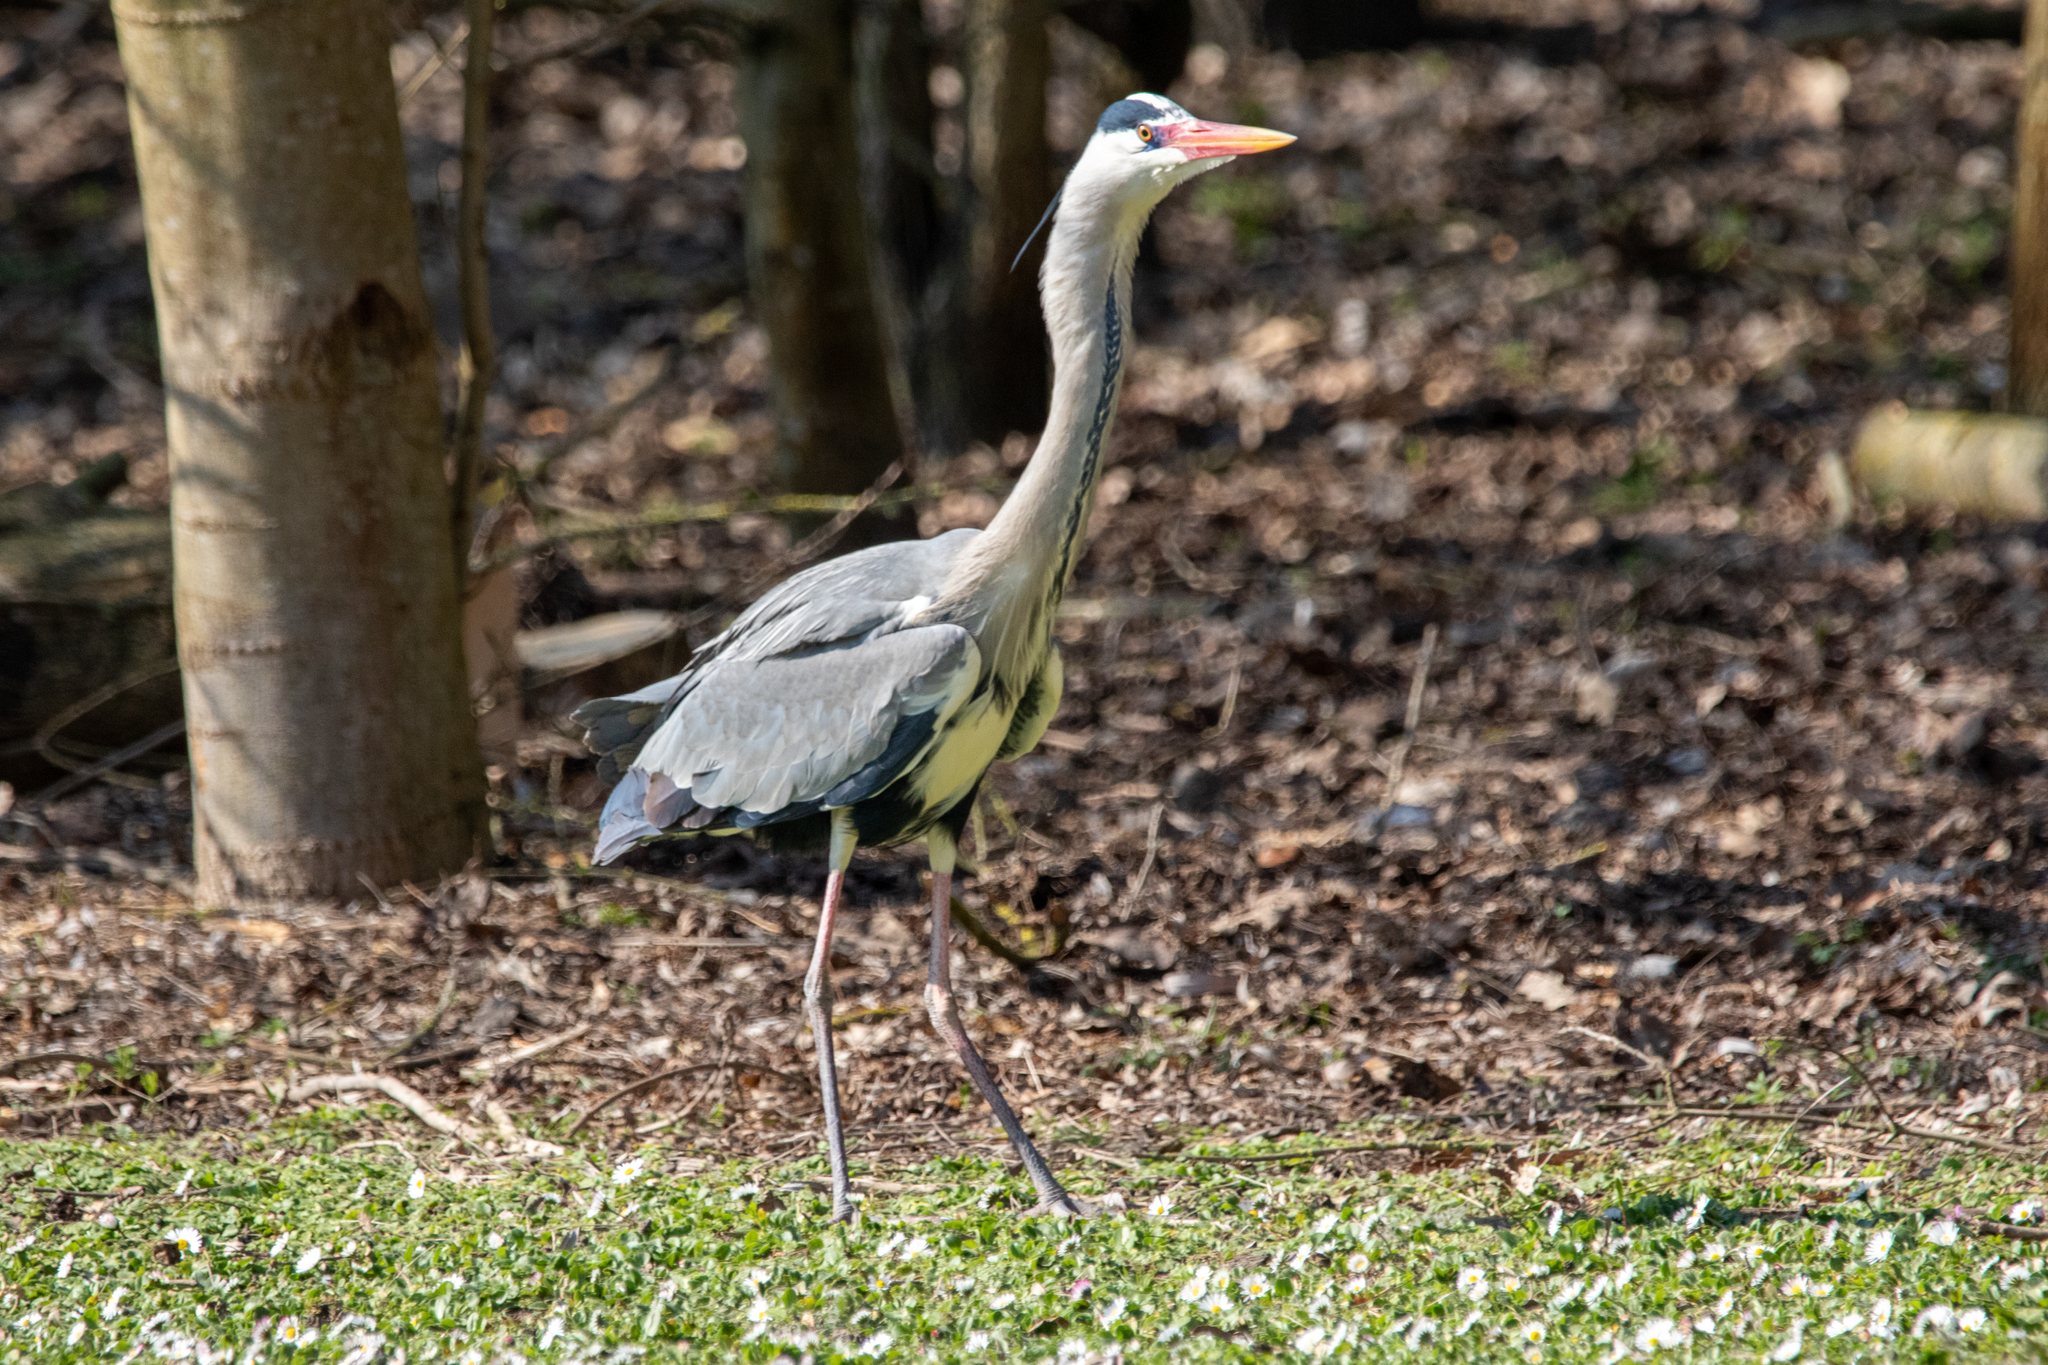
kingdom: Animalia
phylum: Chordata
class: Aves
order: Pelecaniformes
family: Ardeidae
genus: Ardea
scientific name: Ardea cinerea
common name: Grey heron
